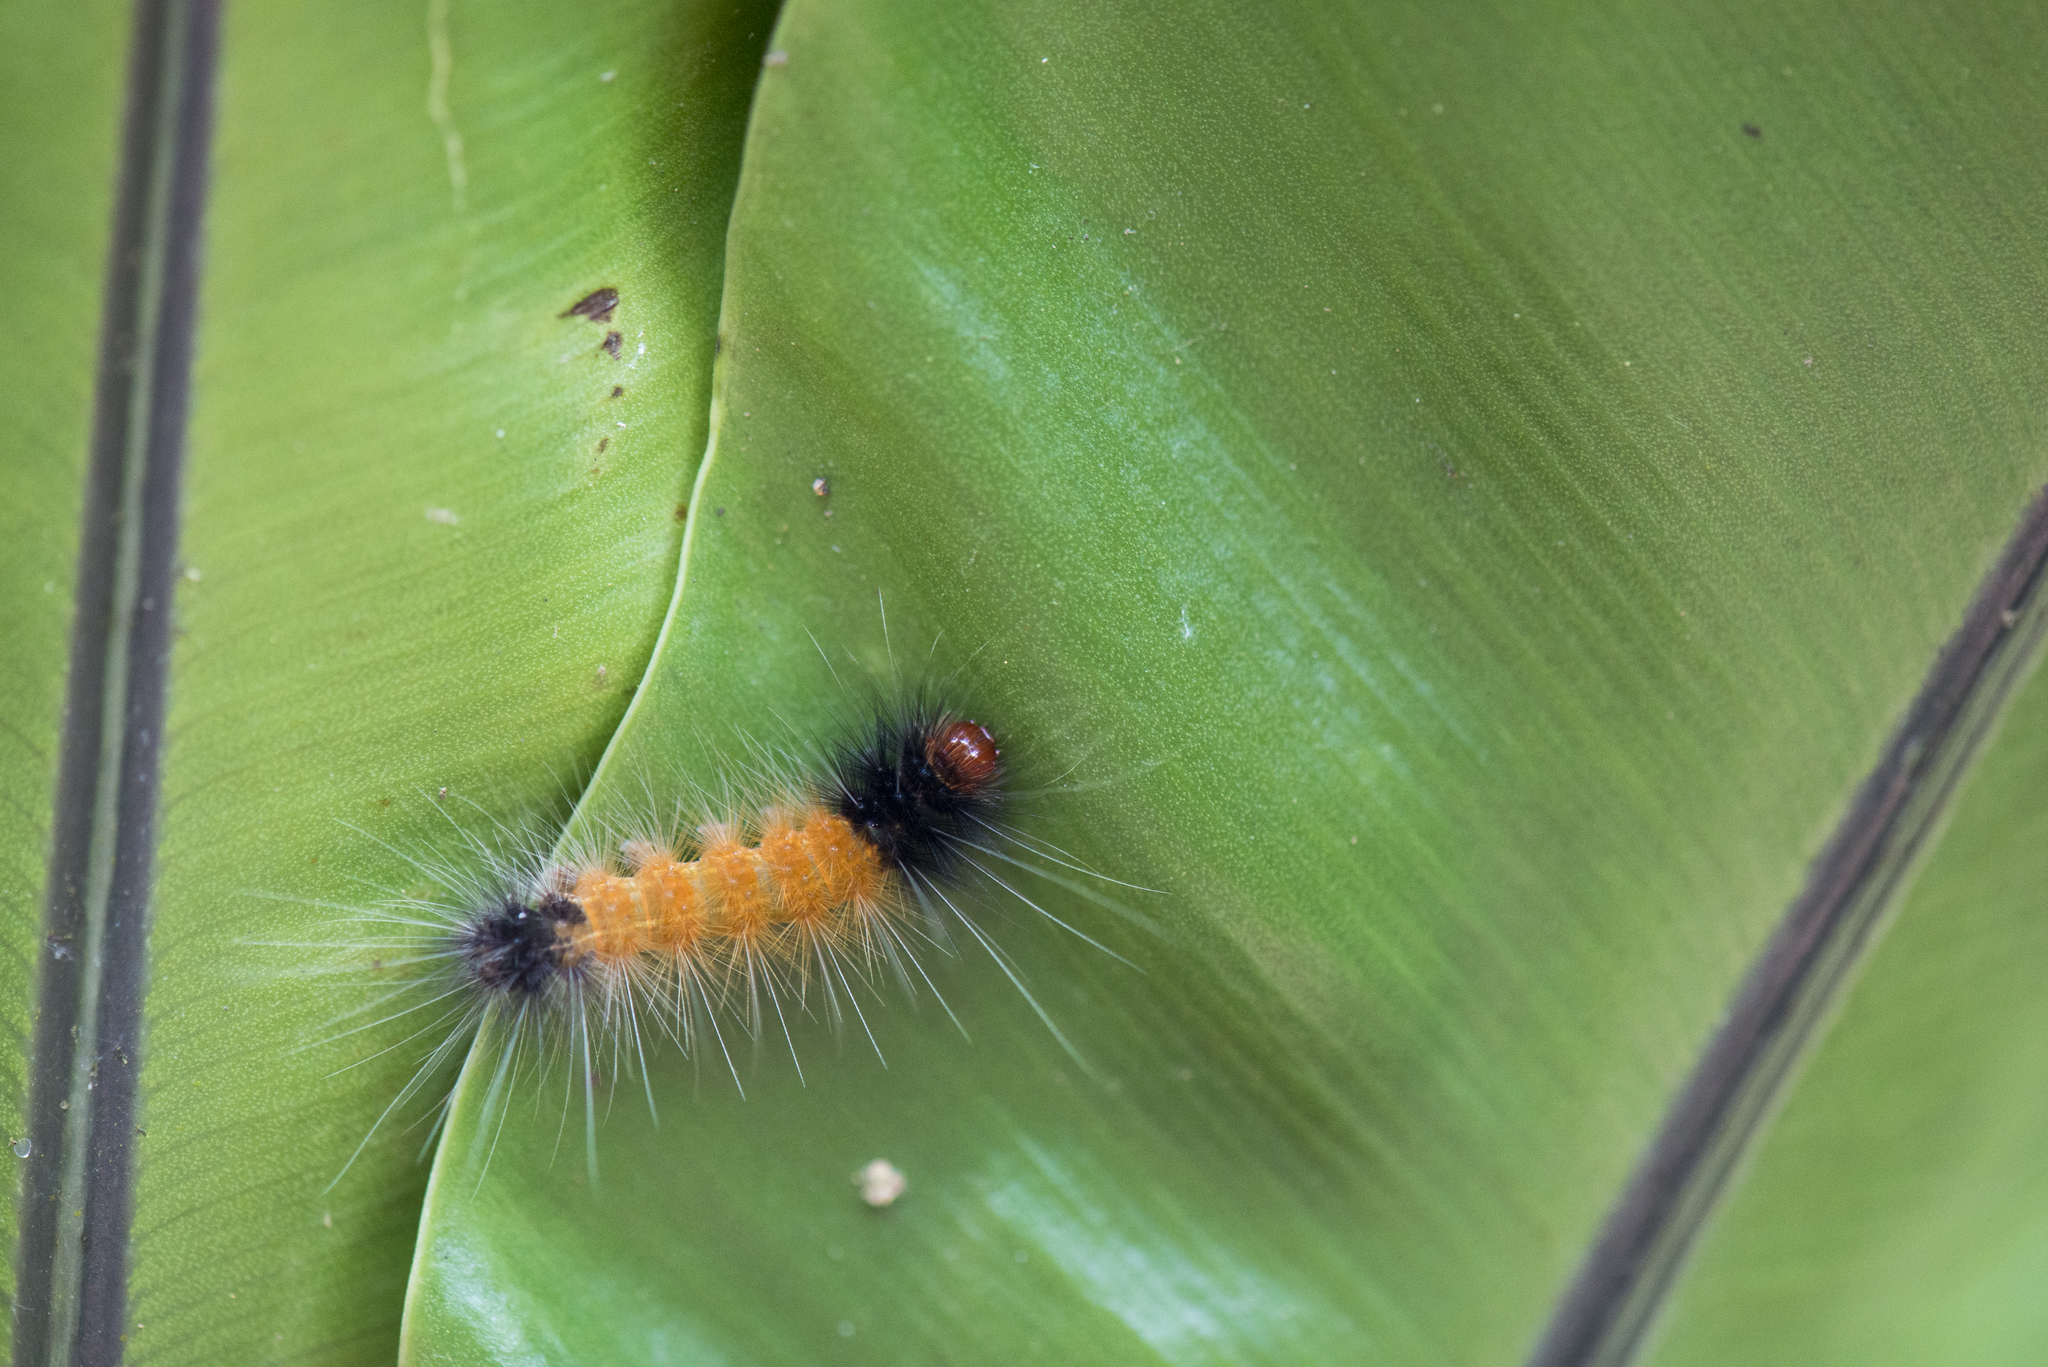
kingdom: Animalia
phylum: Arthropoda
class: Insecta
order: Lepidoptera
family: Erebidae
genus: Spilarctia
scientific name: Spilarctia postrubida
